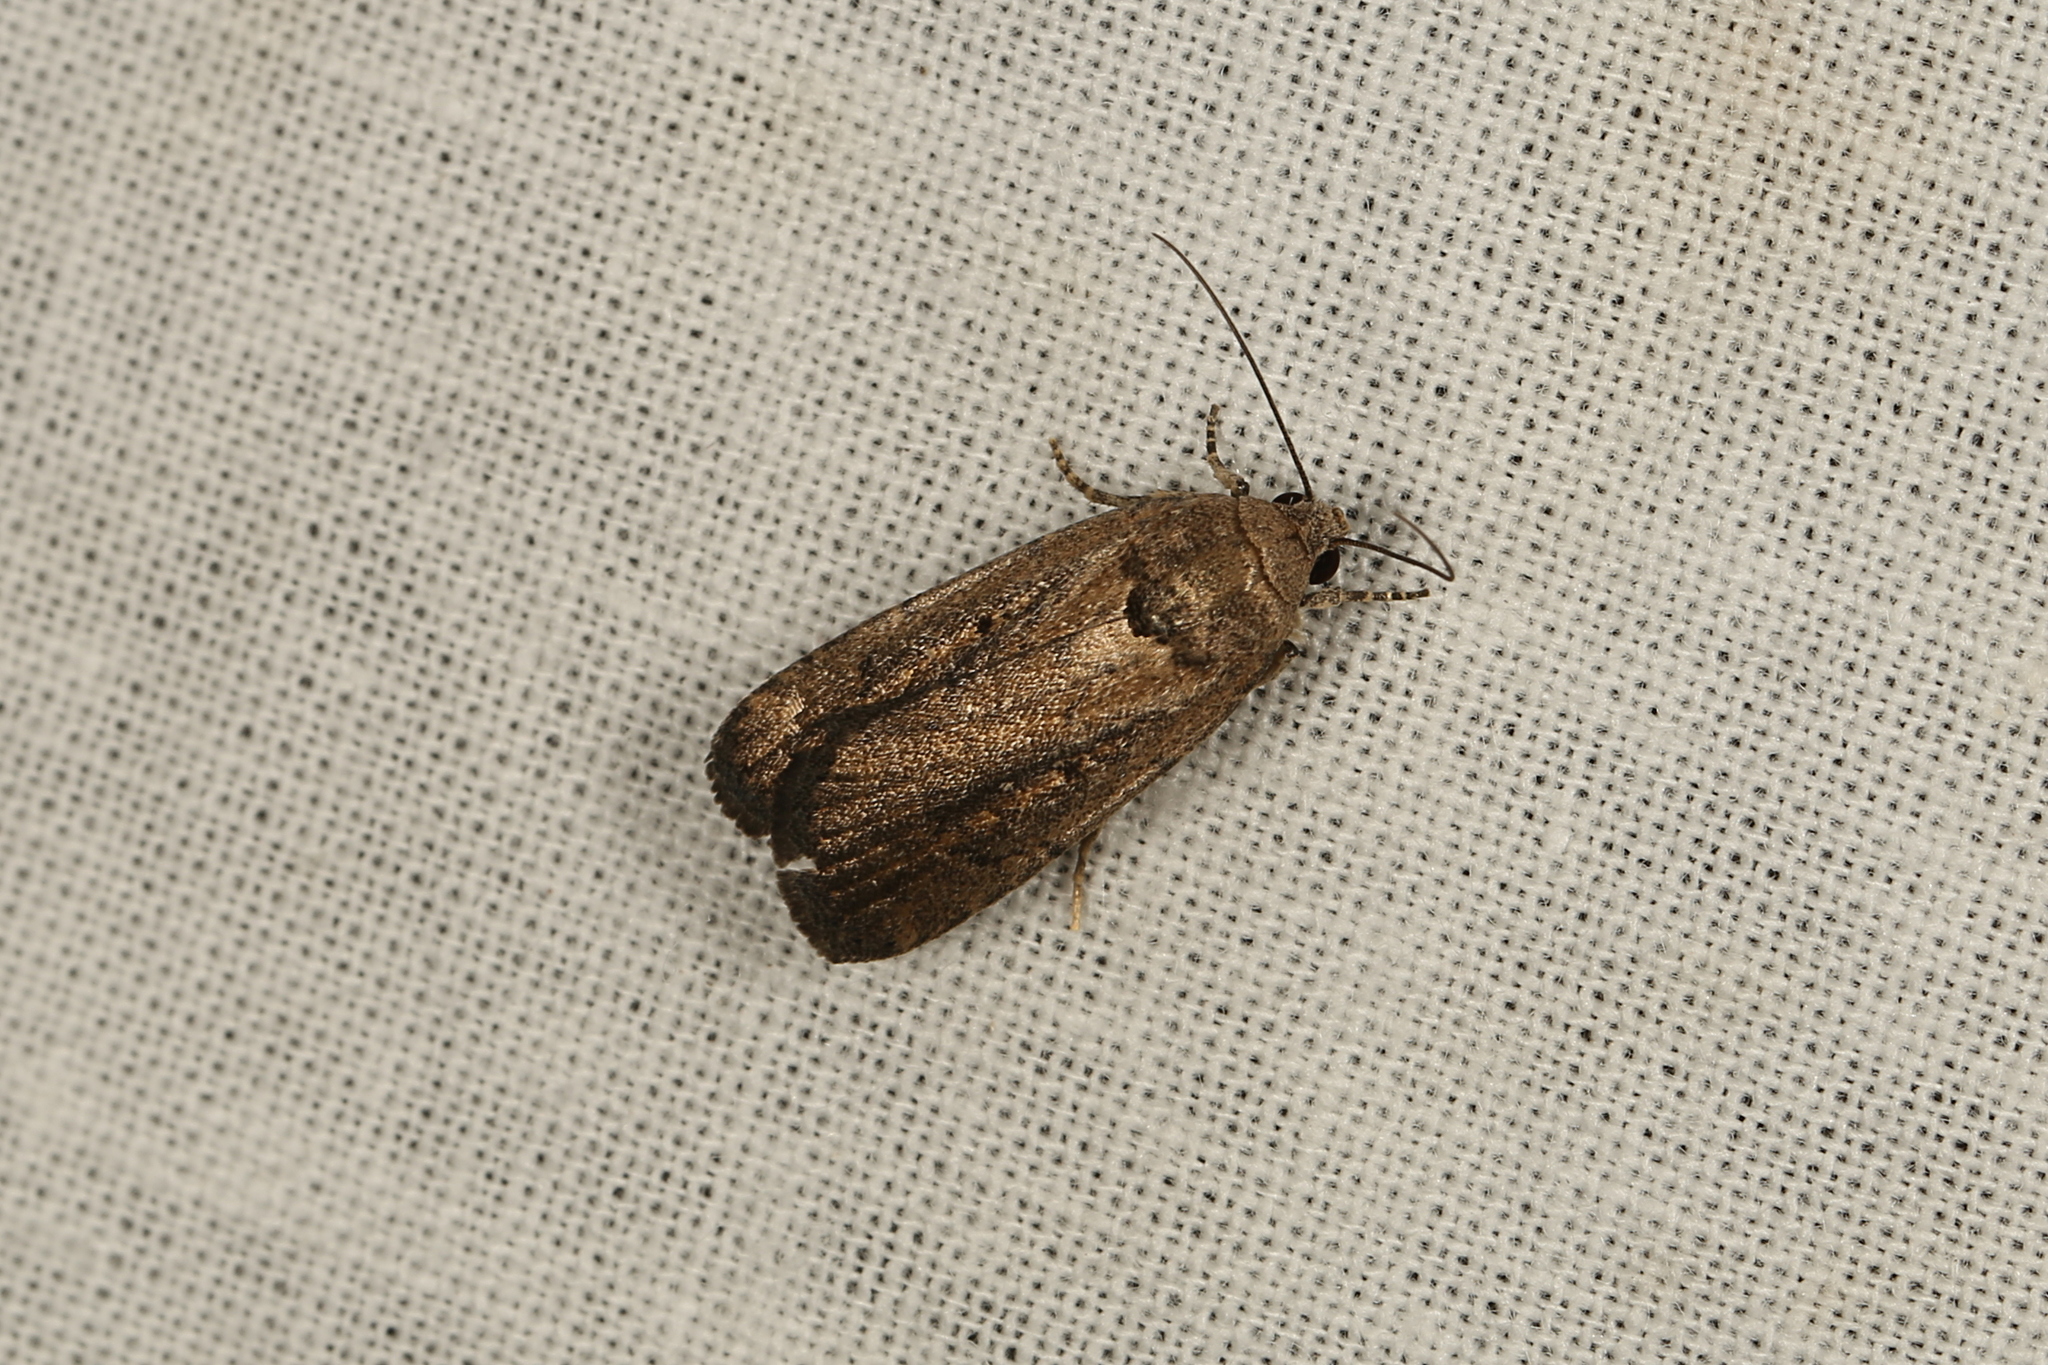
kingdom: Animalia
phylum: Arthropoda
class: Insecta
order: Lepidoptera
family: Noctuidae
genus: Athetis
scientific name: Athetis tenuis
